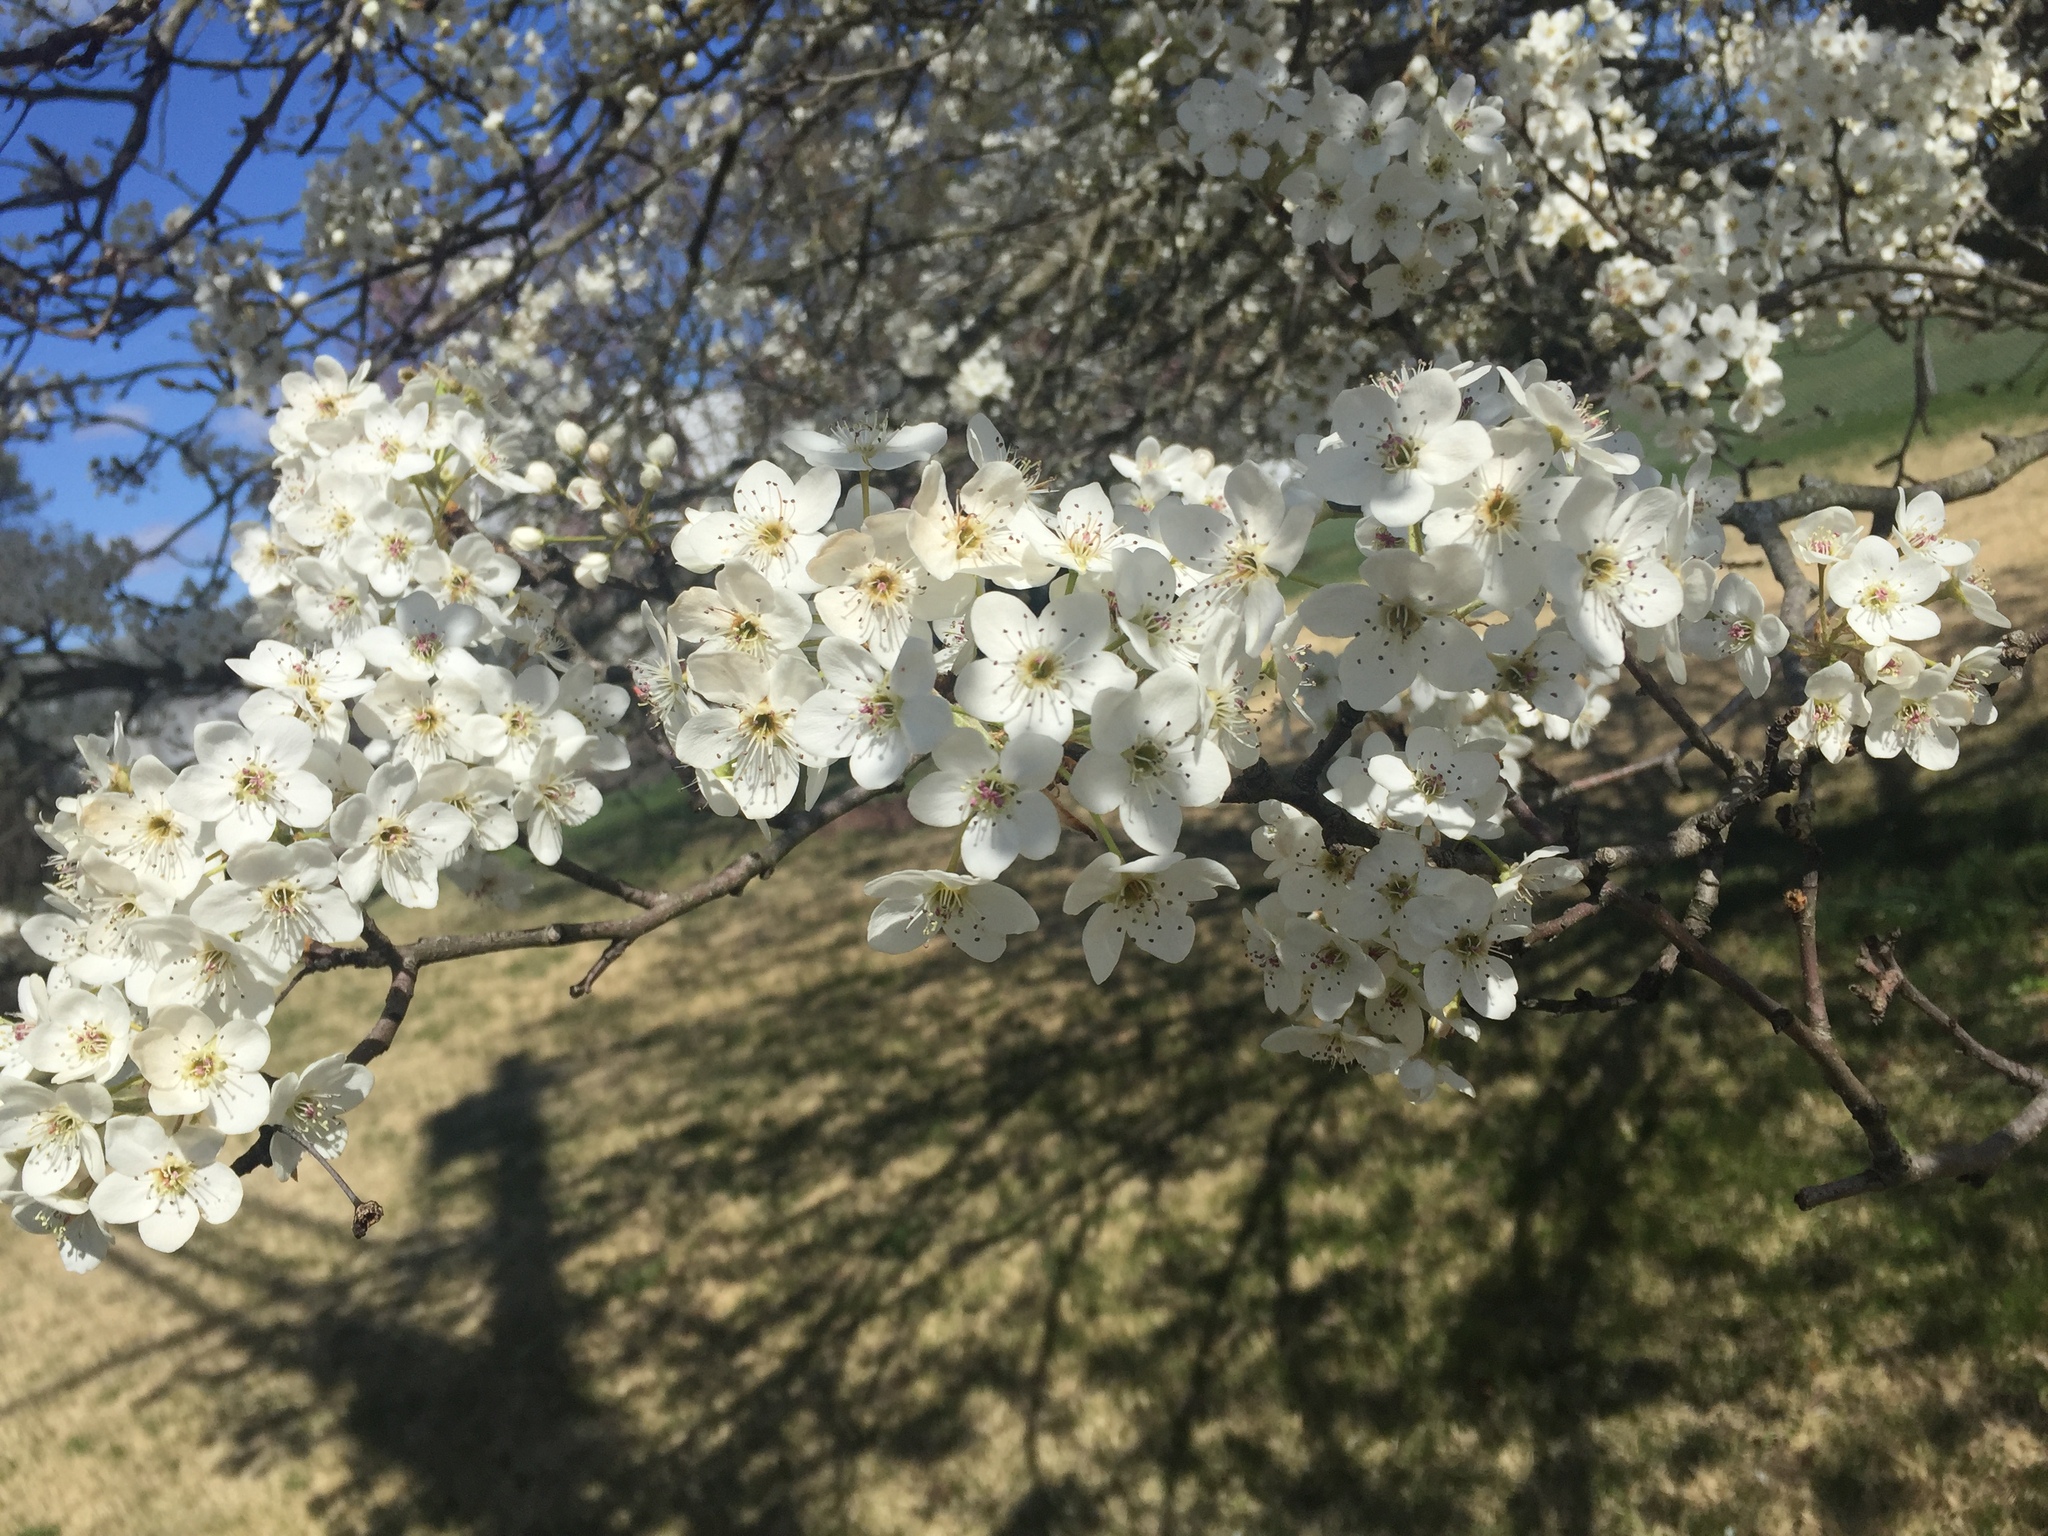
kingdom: Plantae
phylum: Tracheophyta
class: Magnoliopsida
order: Rosales
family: Rosaceae
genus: Pyrus
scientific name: Pyrus calleryana
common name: Callery pear
